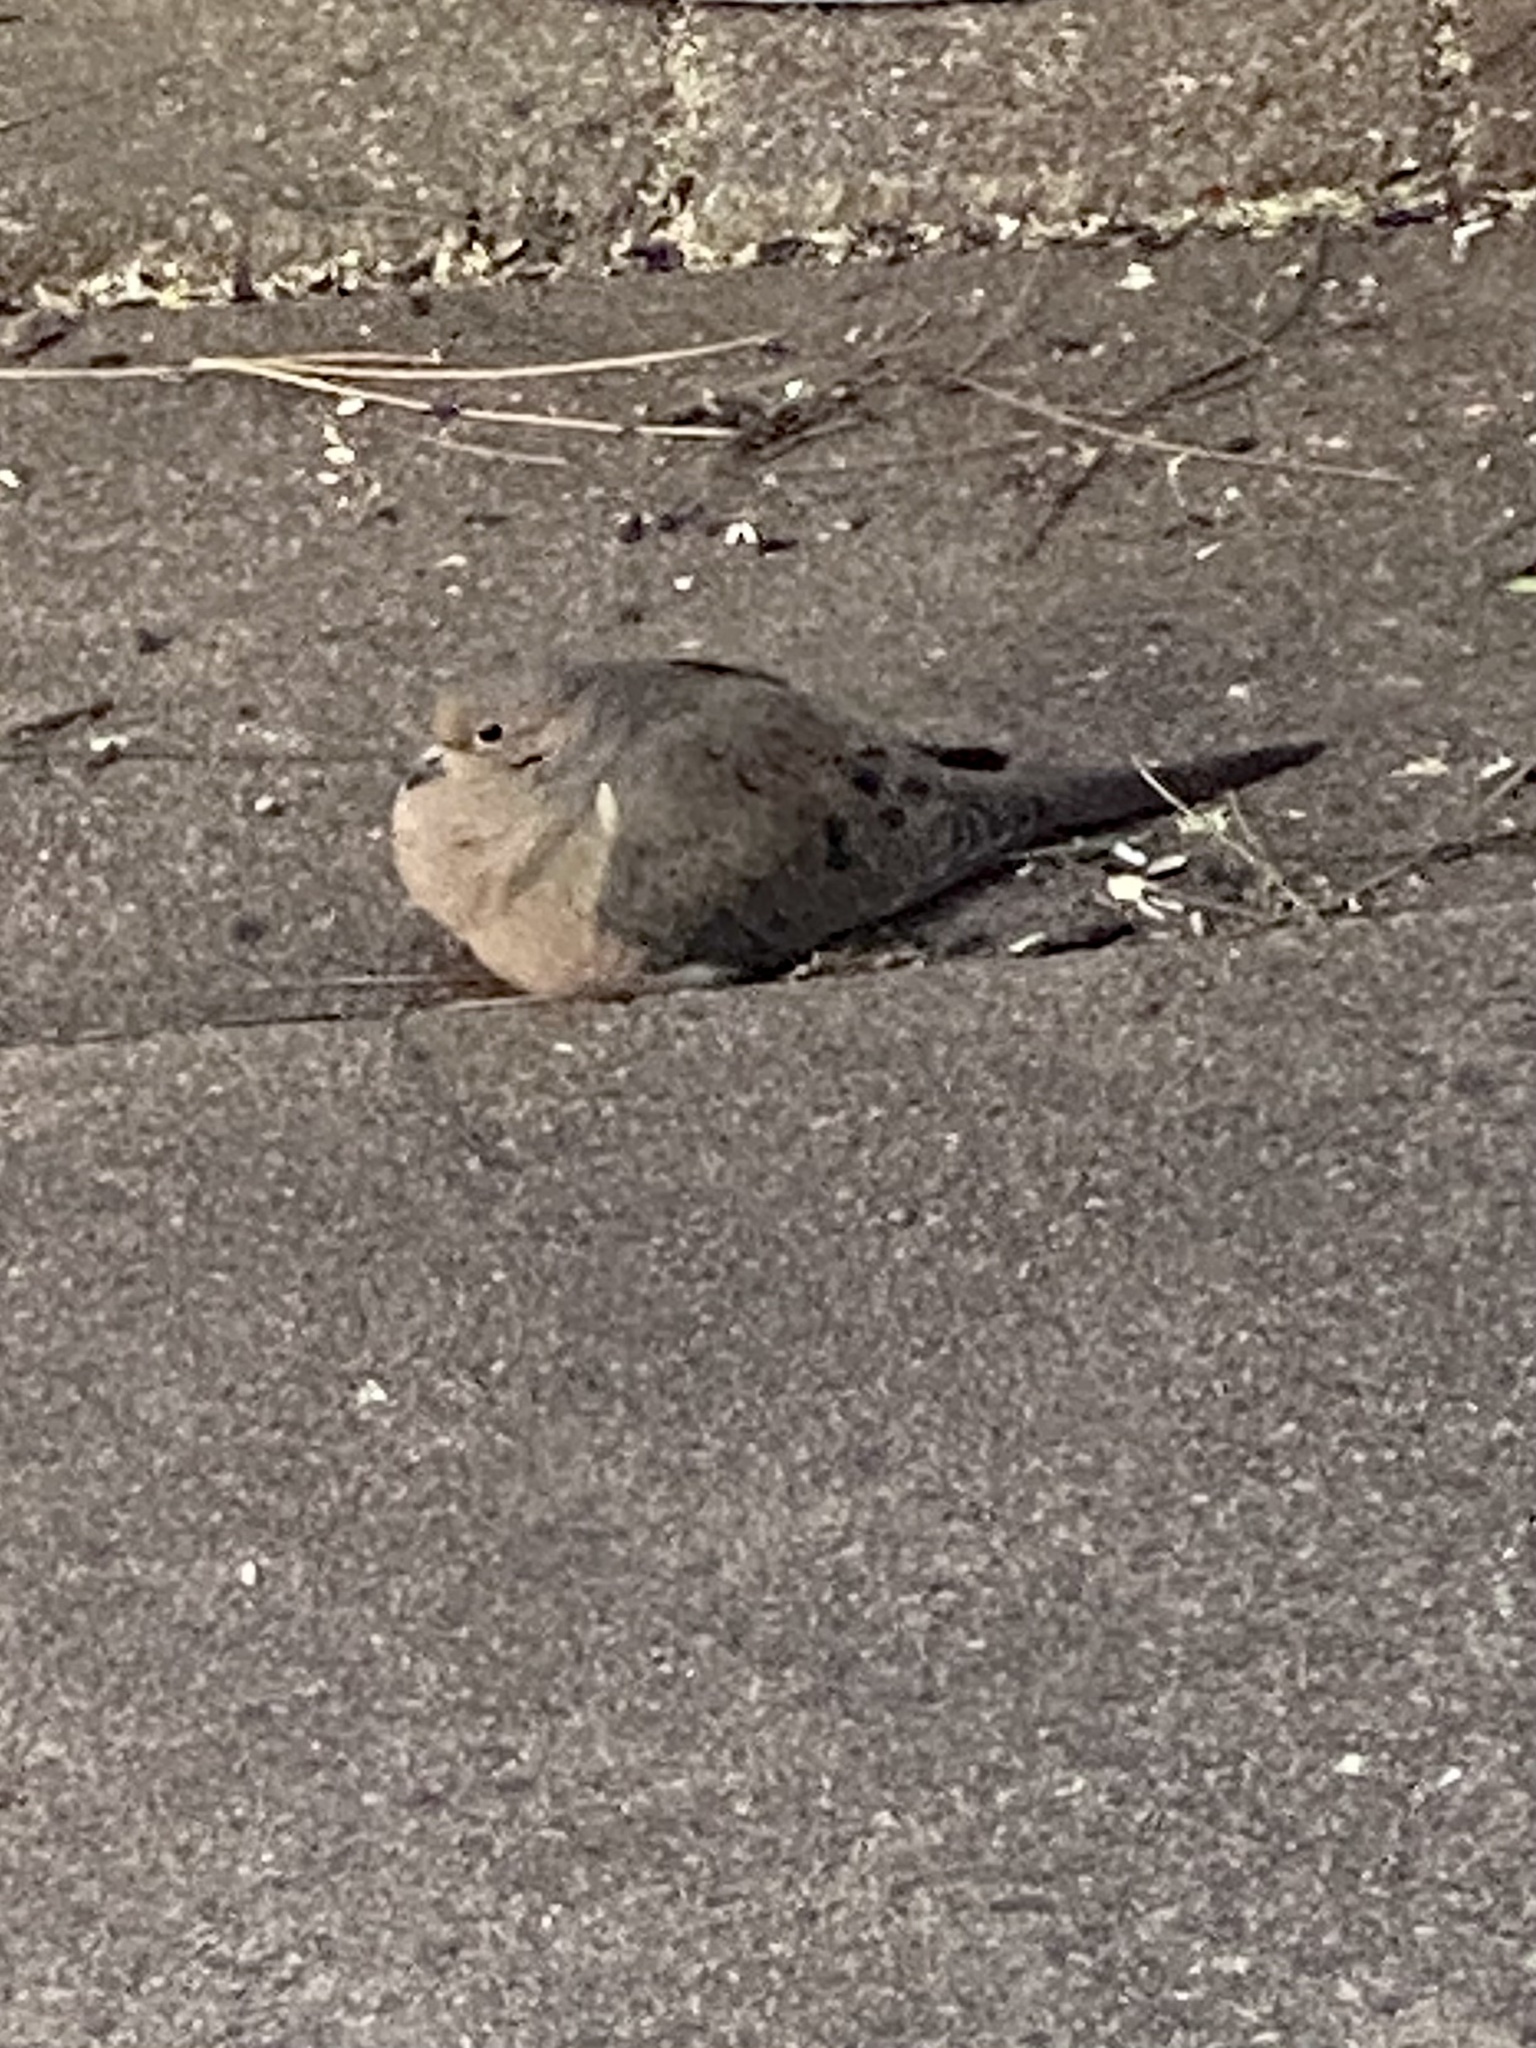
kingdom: Animalia
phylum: Chordata
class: Aves
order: Columbiformes
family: Columbidae
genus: Zenaida
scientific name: Zenaida macroura
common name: Mourning dove
